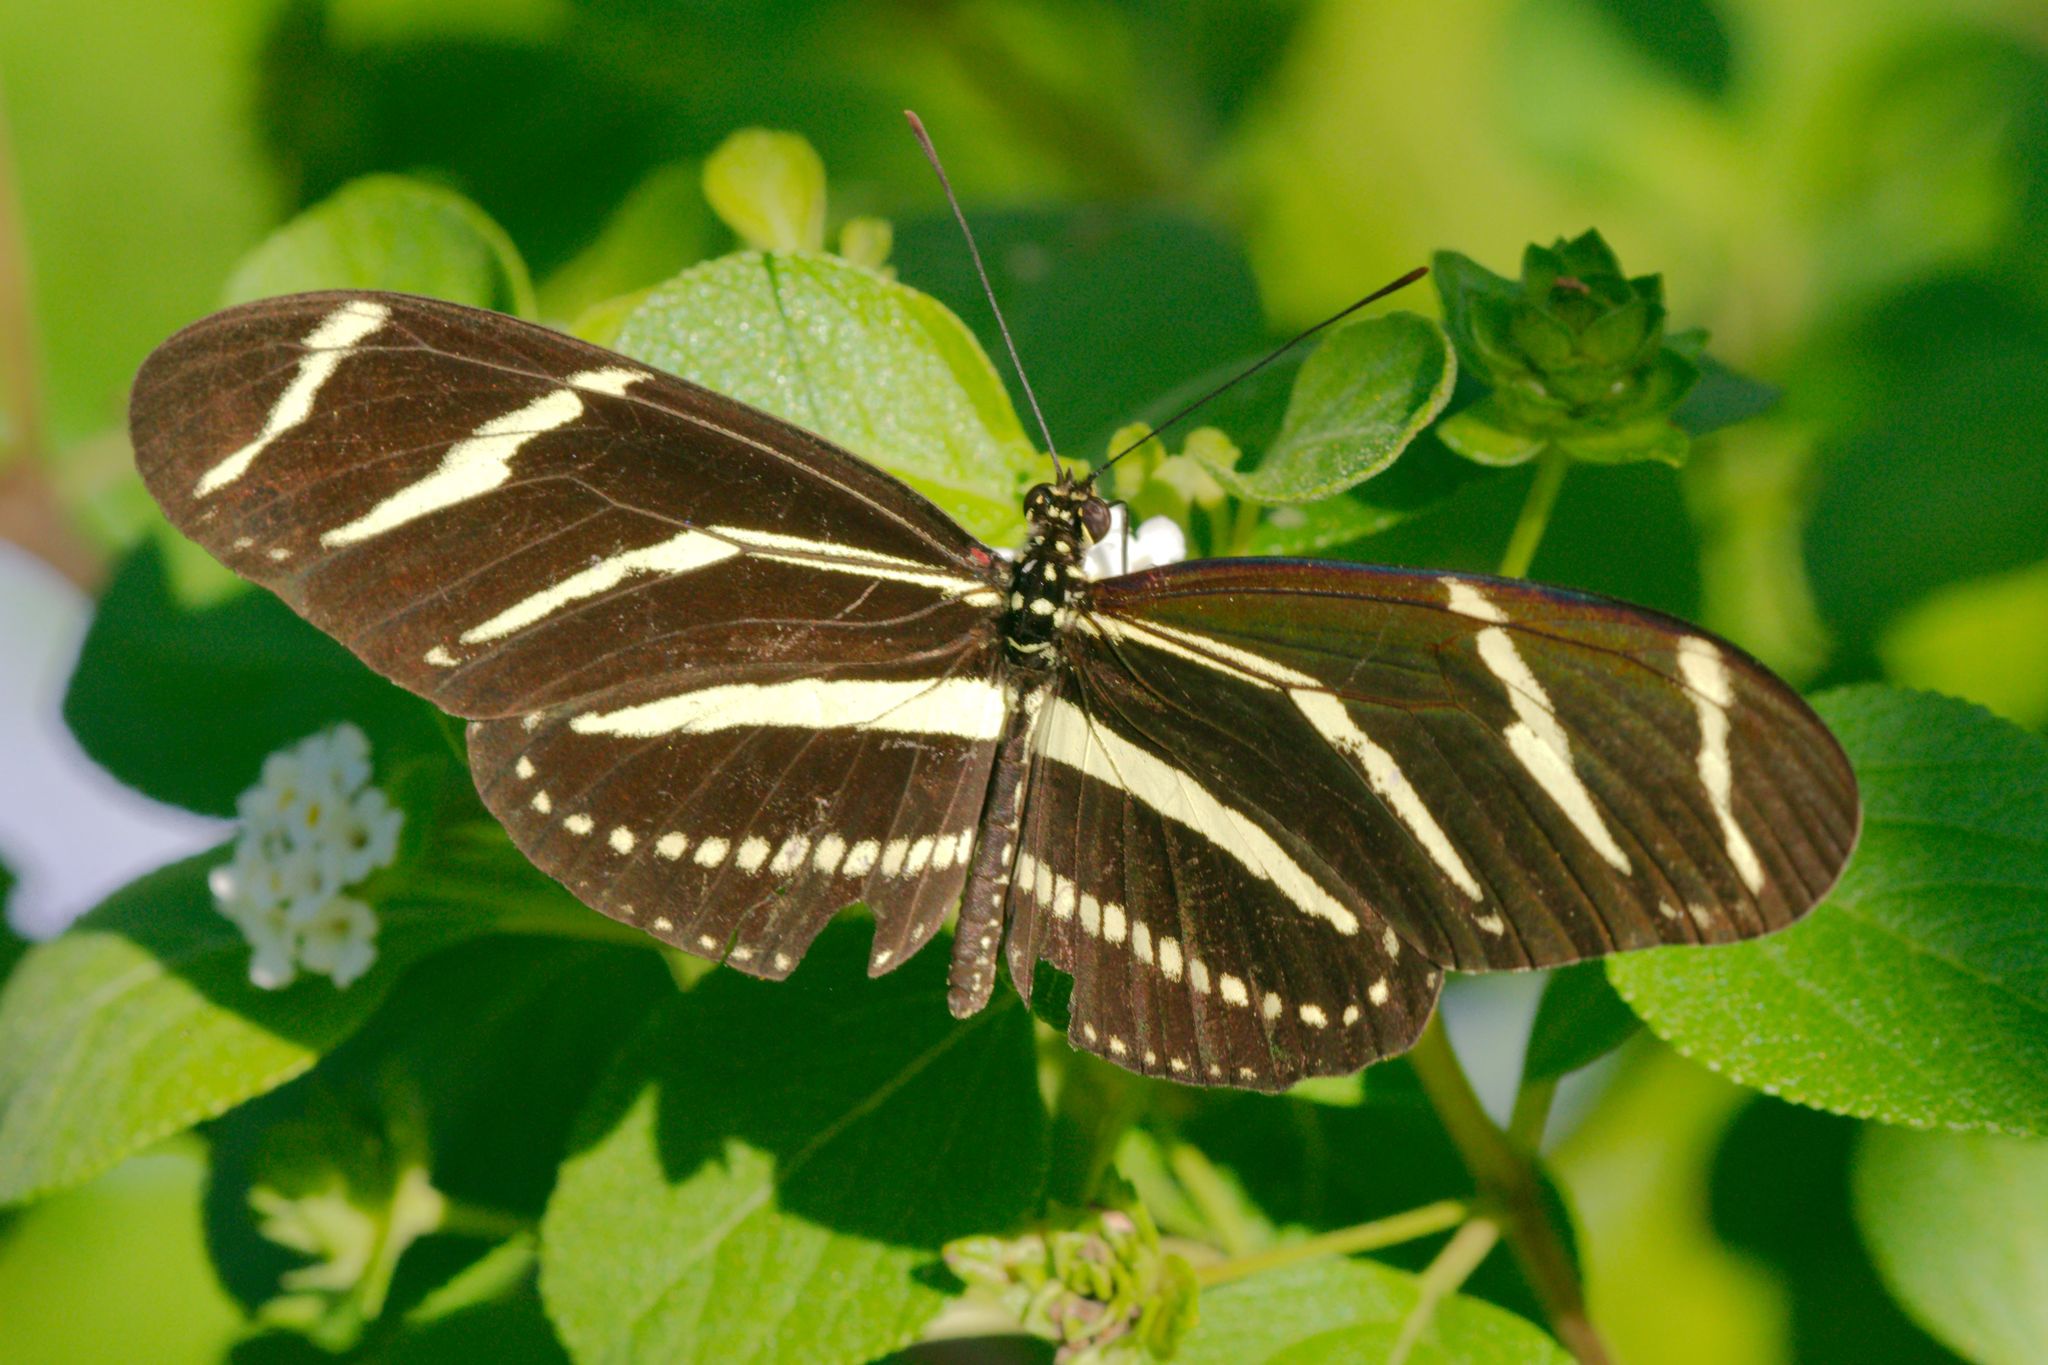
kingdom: Animalia
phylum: Arthropoda
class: Insecta
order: Lepidoptera
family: Nymphalidae
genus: Heliconius
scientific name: Heliconius charithonia
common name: Zebra long wing
